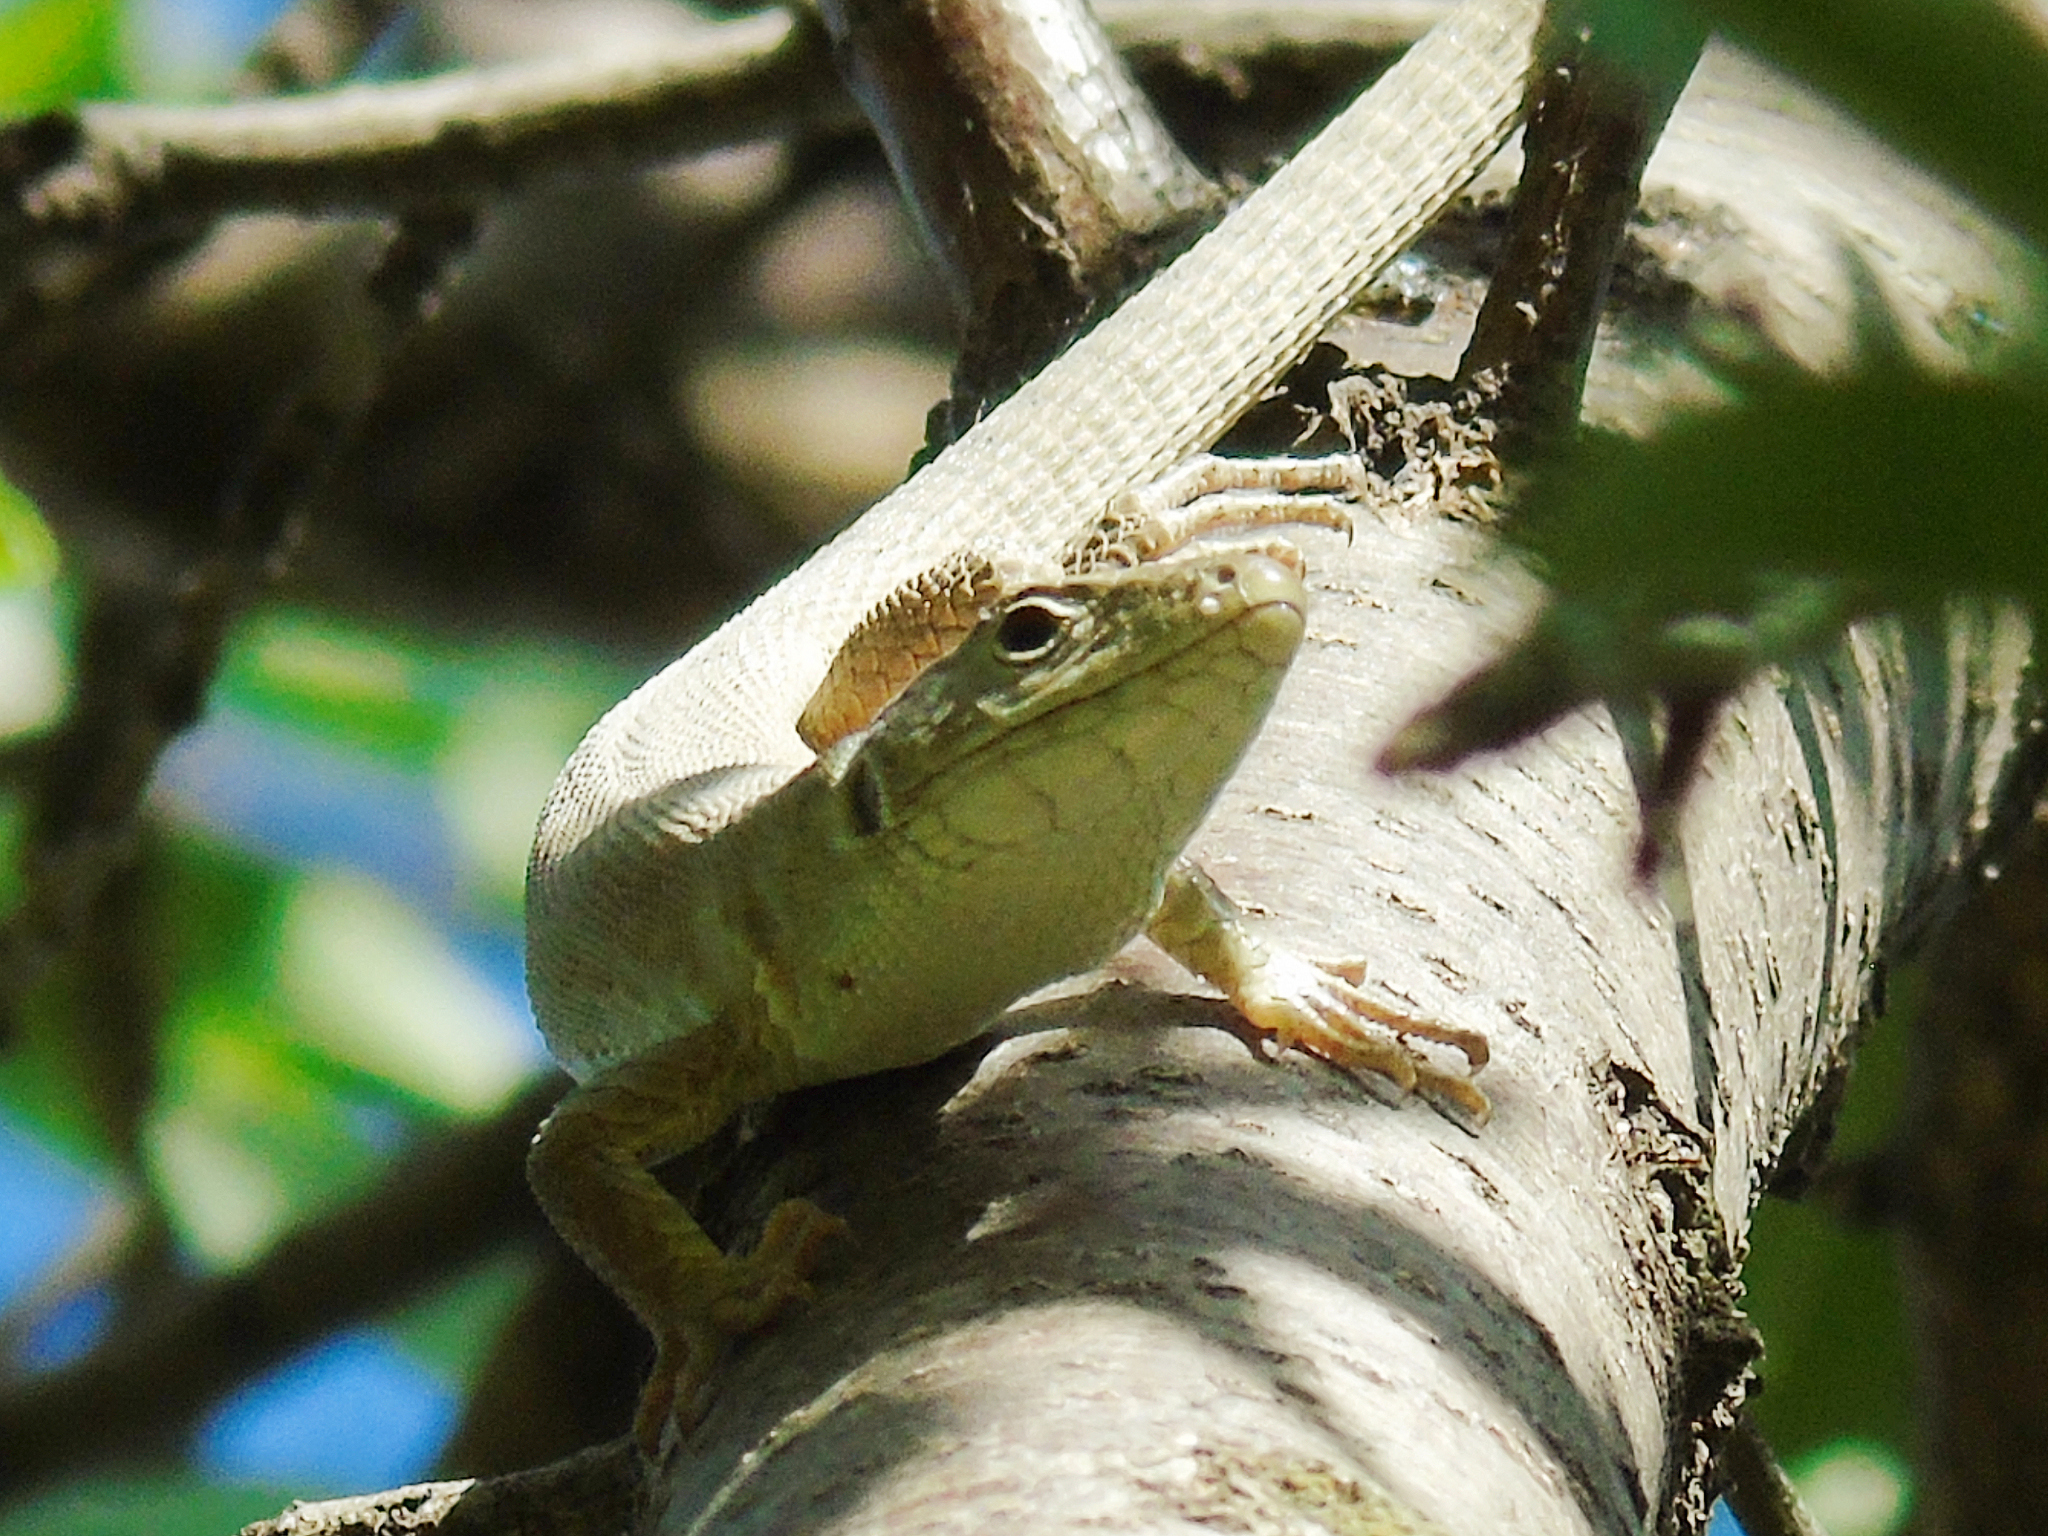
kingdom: Animalia
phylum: Chordata
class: Squamata
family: Lacertidae
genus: Timon
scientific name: Timon kurdistanicus
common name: Kurdistan lizard
